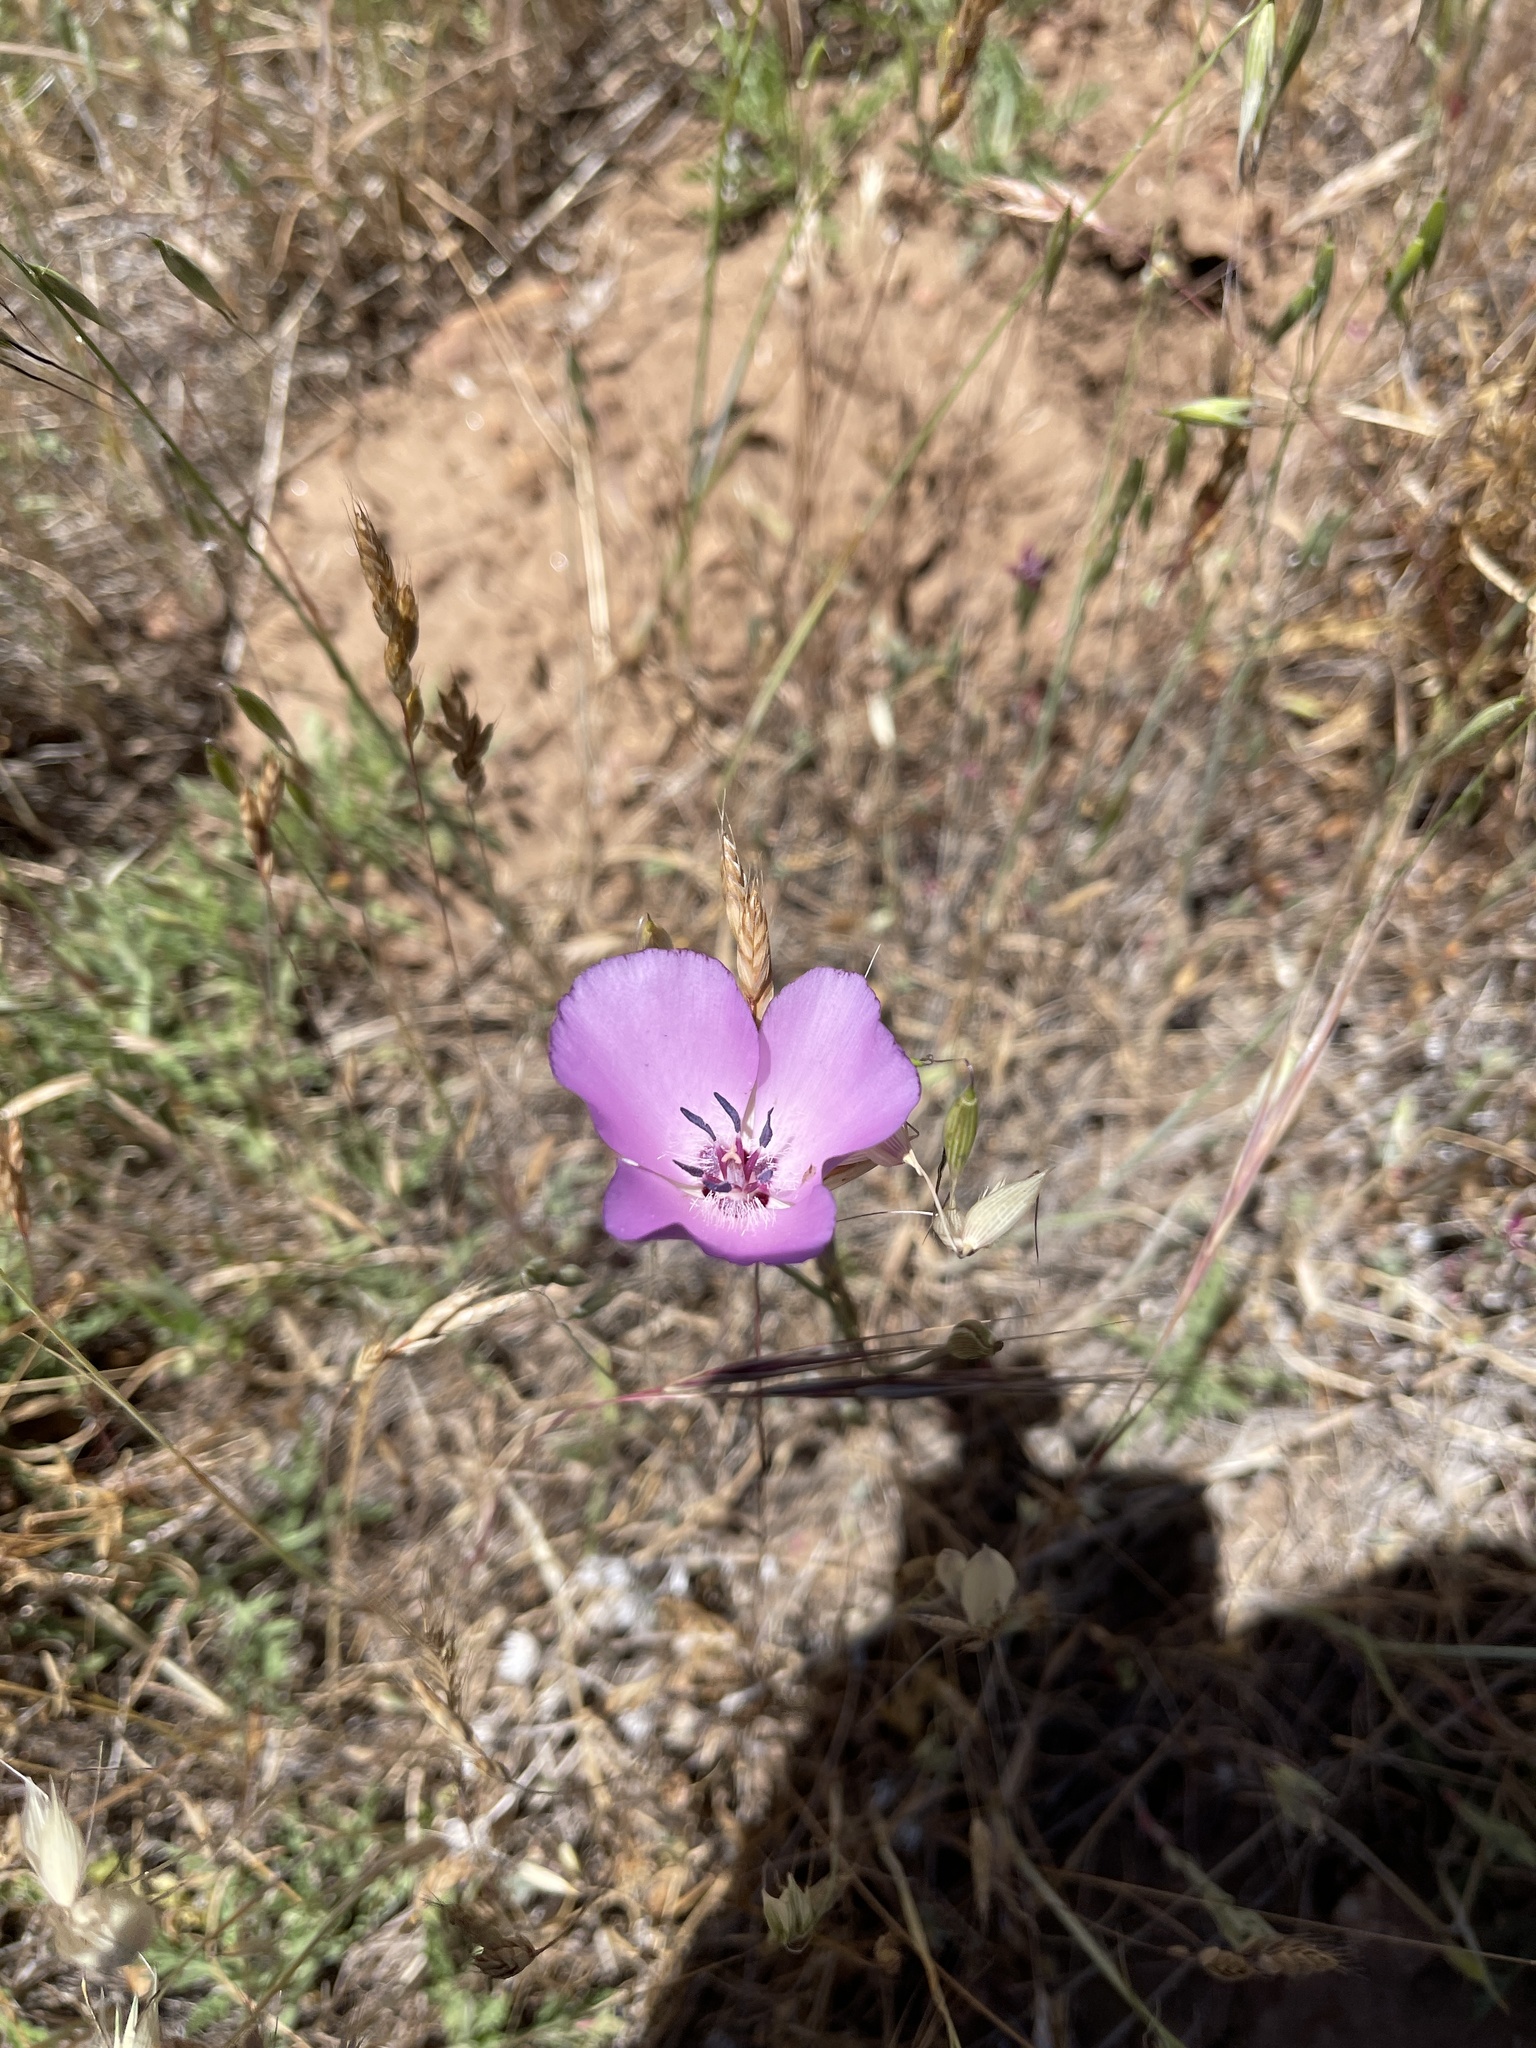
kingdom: Plantae
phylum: Tracheophyta
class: Liliopsida
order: Liliales
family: Liliaceae
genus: Calochortus
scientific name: Calochortus splendens
